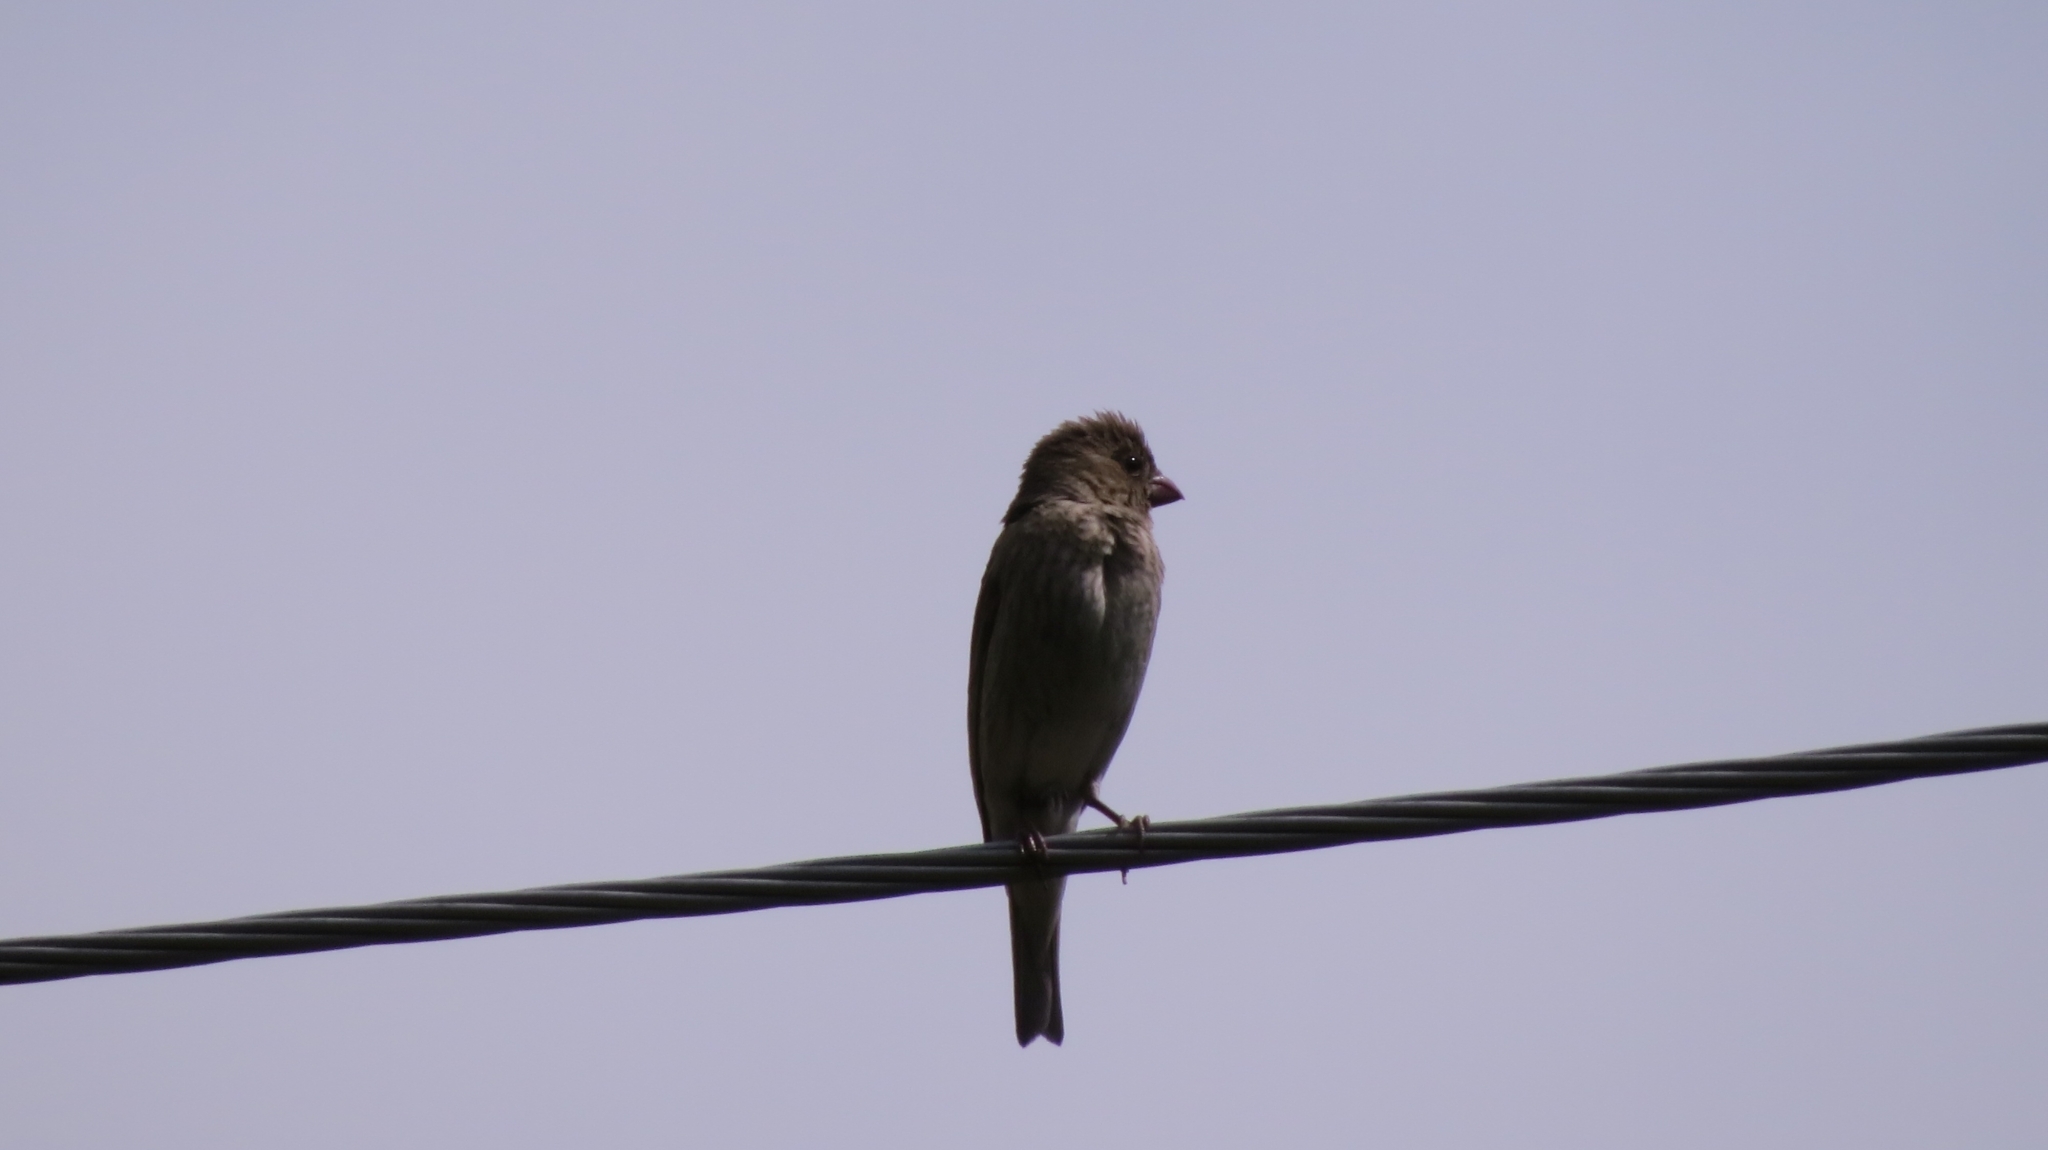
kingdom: Animalia
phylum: Chordata
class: Aves
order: Passeriformes
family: Fringillidae
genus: Carpodacus
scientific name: Carpodacus erythrinus
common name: Common rosefinch
